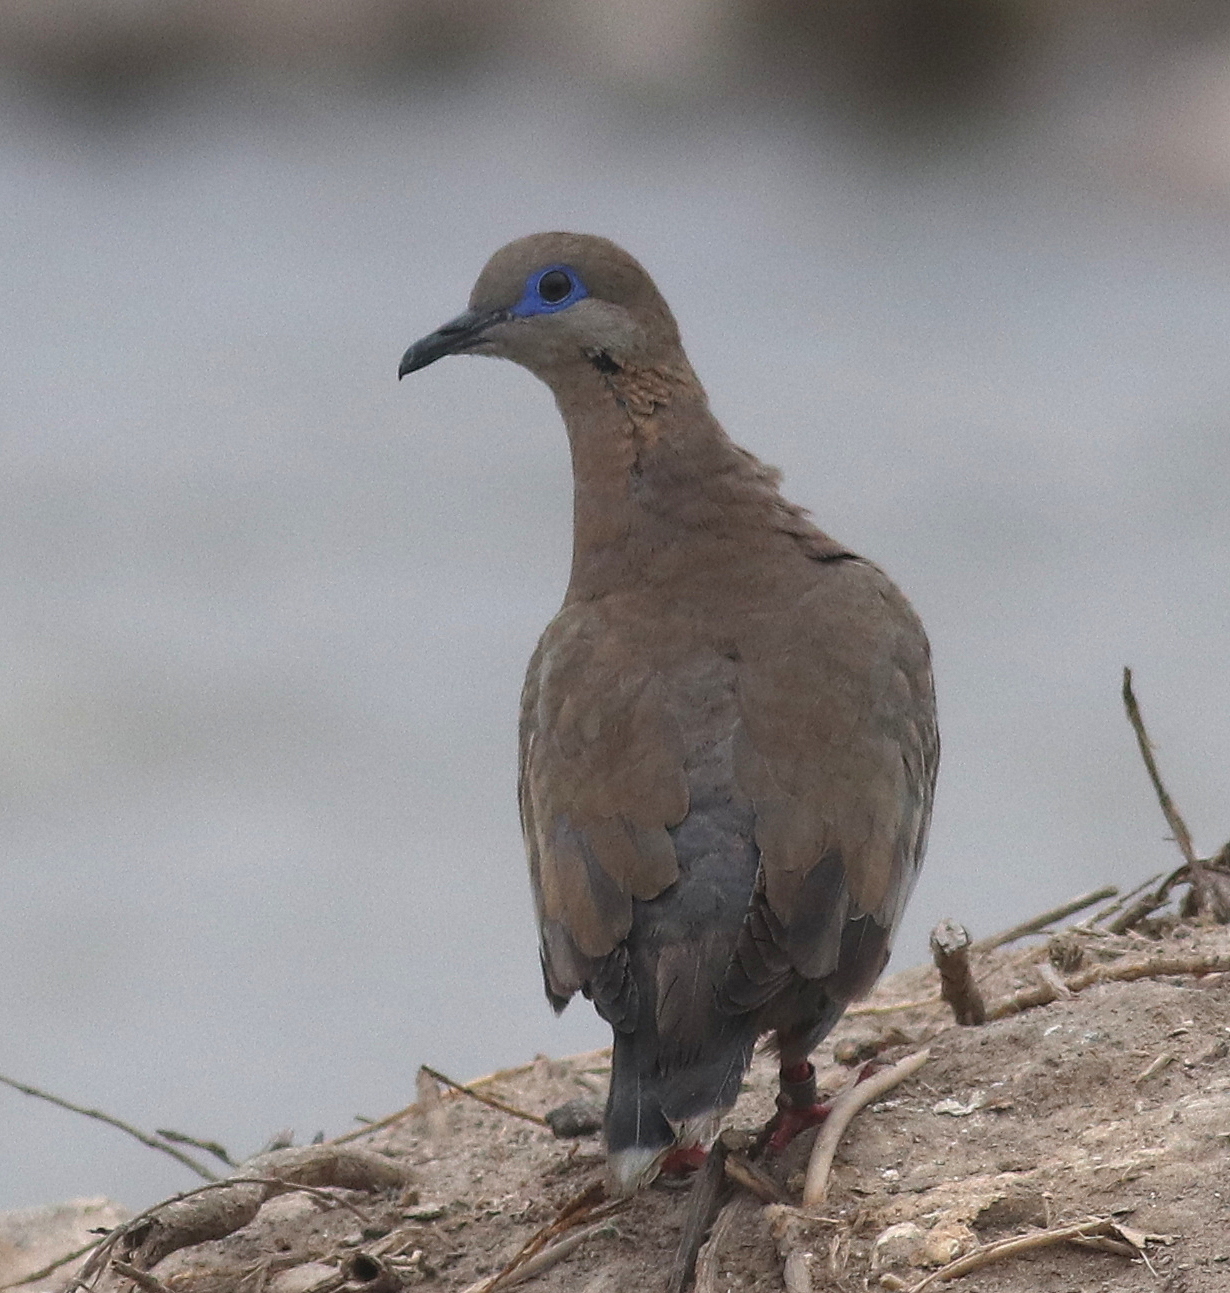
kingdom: Animalia
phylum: Chordata
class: Aves
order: Columbiformes
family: Columbidae
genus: Zenaida
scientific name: Zenaida meloda
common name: West peruvian dove
